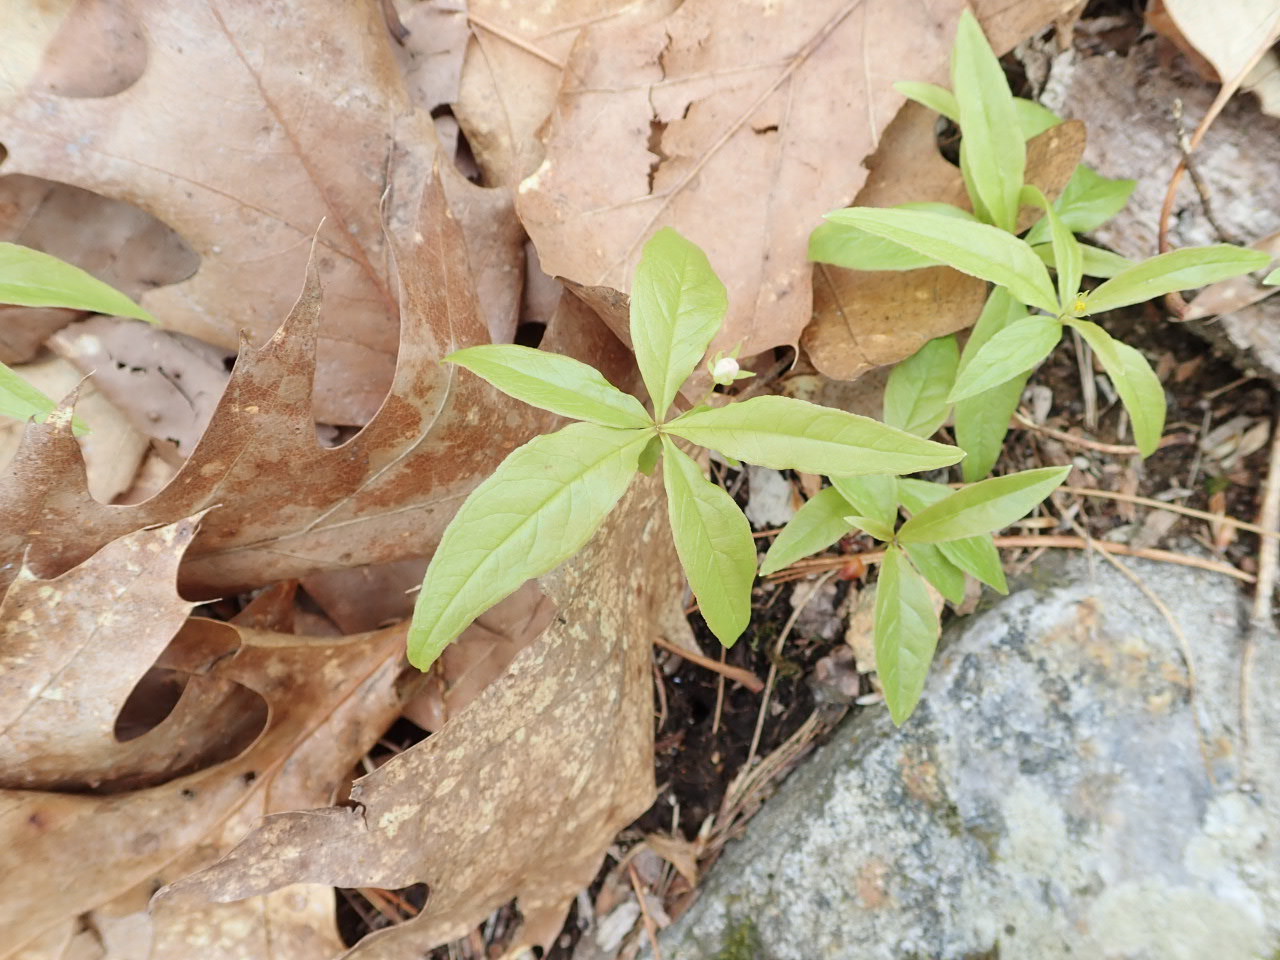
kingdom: Plantae
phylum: Tracheophyta
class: Magnoliopsida
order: Ericales
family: Primulaceae
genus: Lysimachia
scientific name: Lysimachia borealis
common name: American starflower
